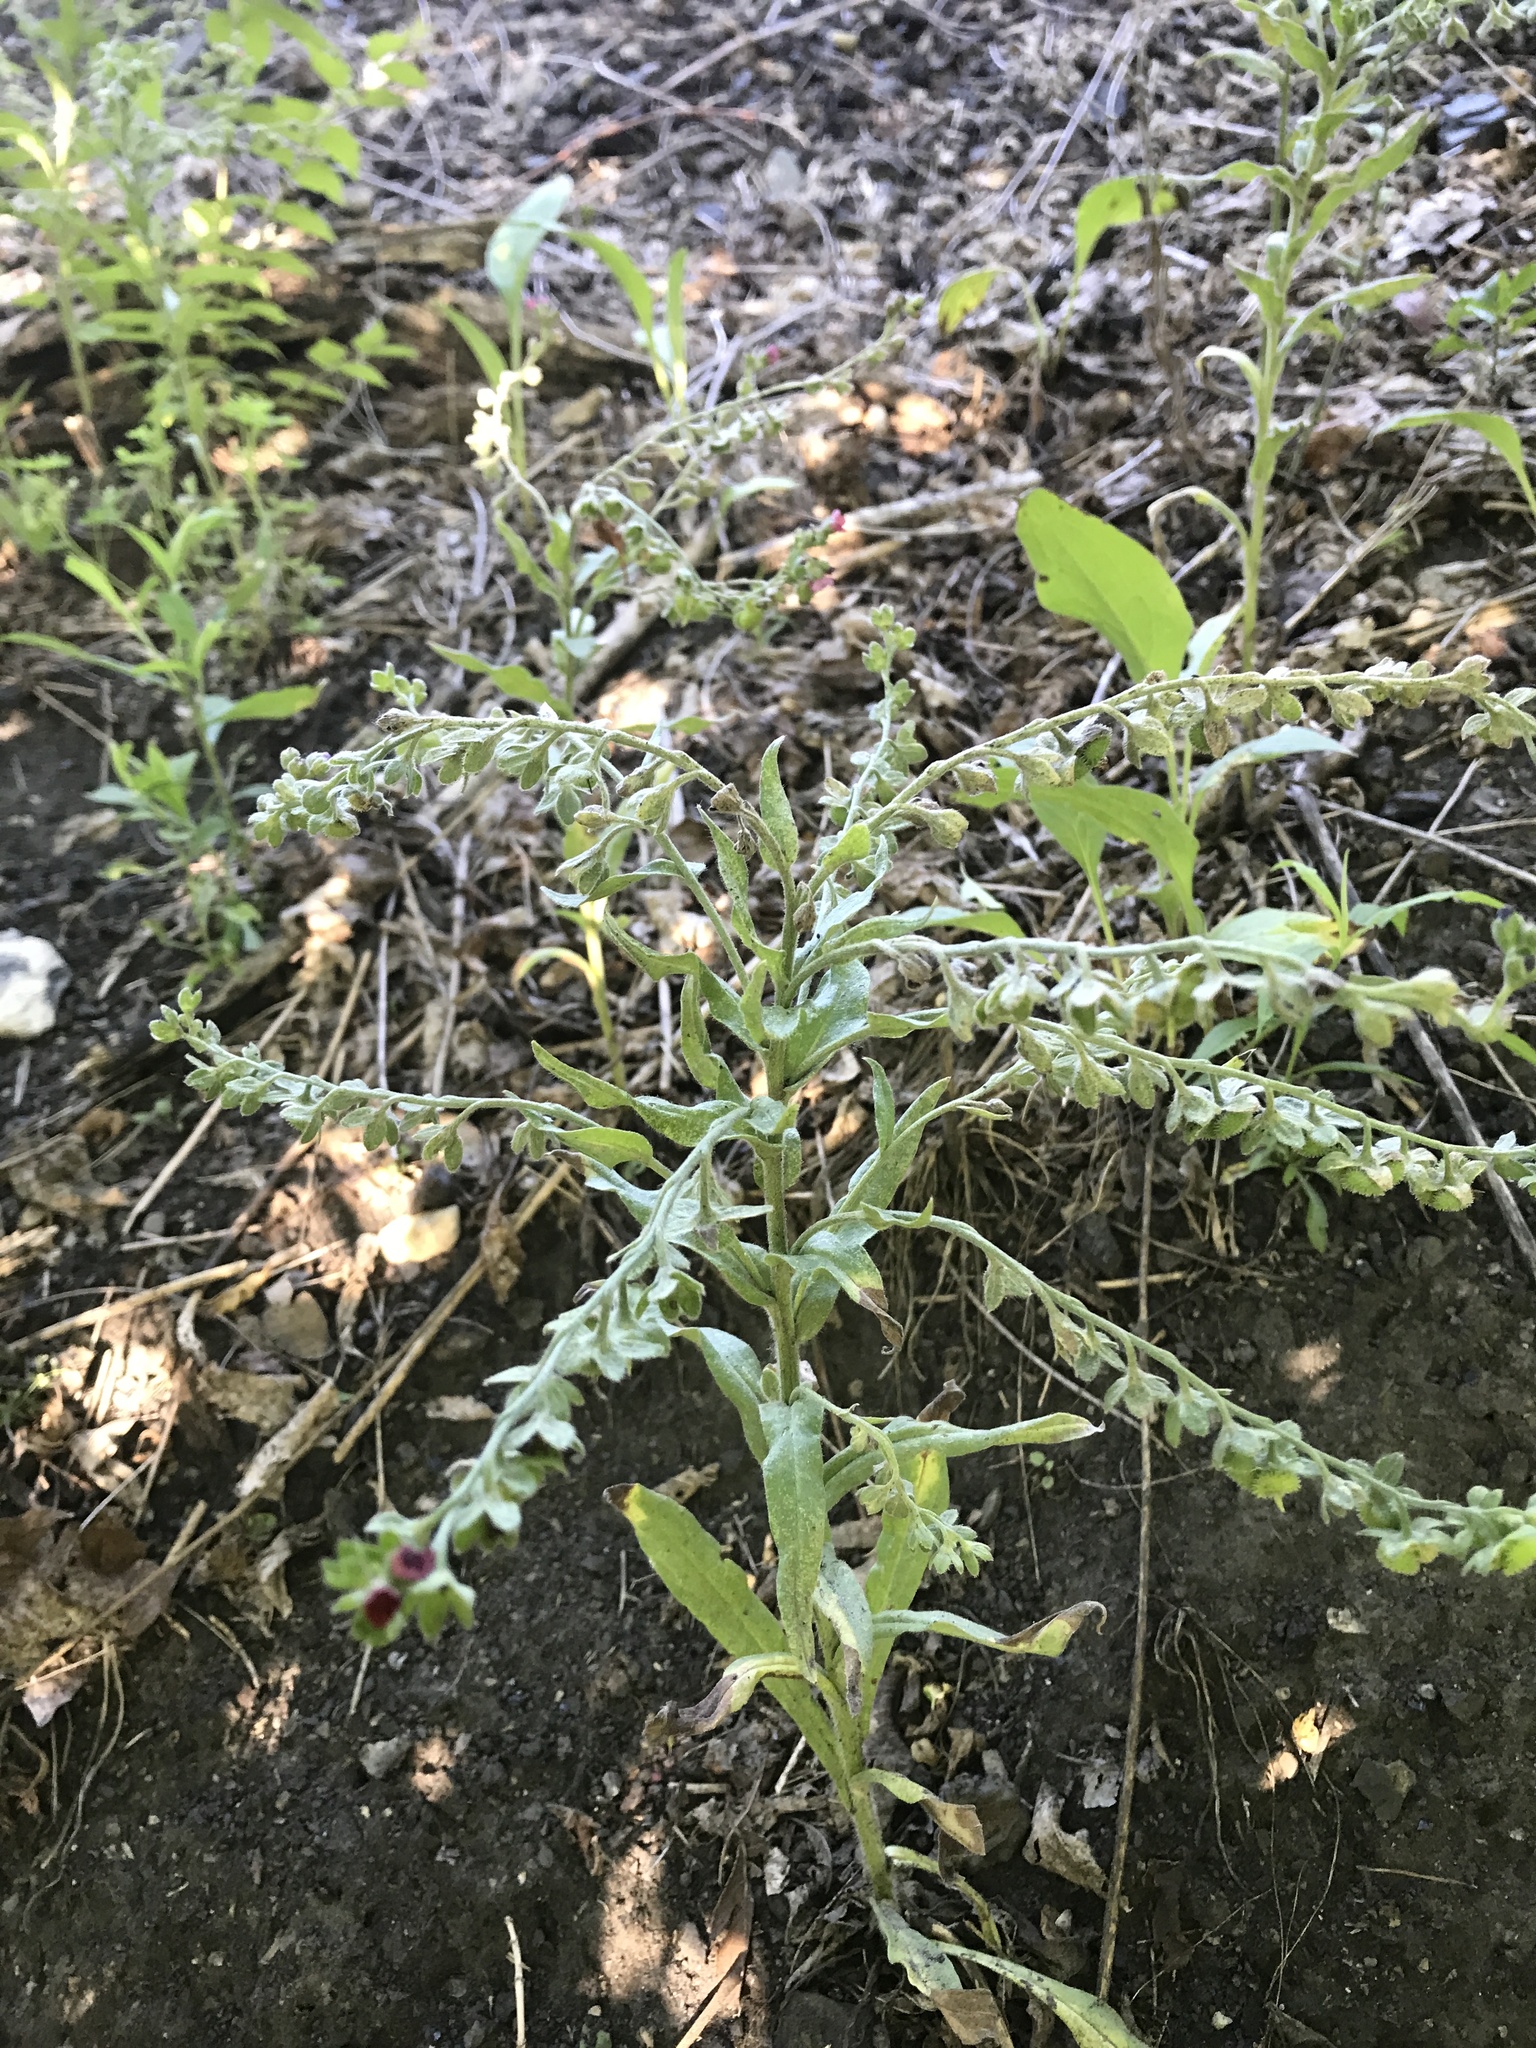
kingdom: Plantae
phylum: Tracheophyta
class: Magnoliopsida
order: Boraginales
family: Boraginaceae
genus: Cynoglossum
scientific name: Cynoglossum officinale
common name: Hound's-tongue
